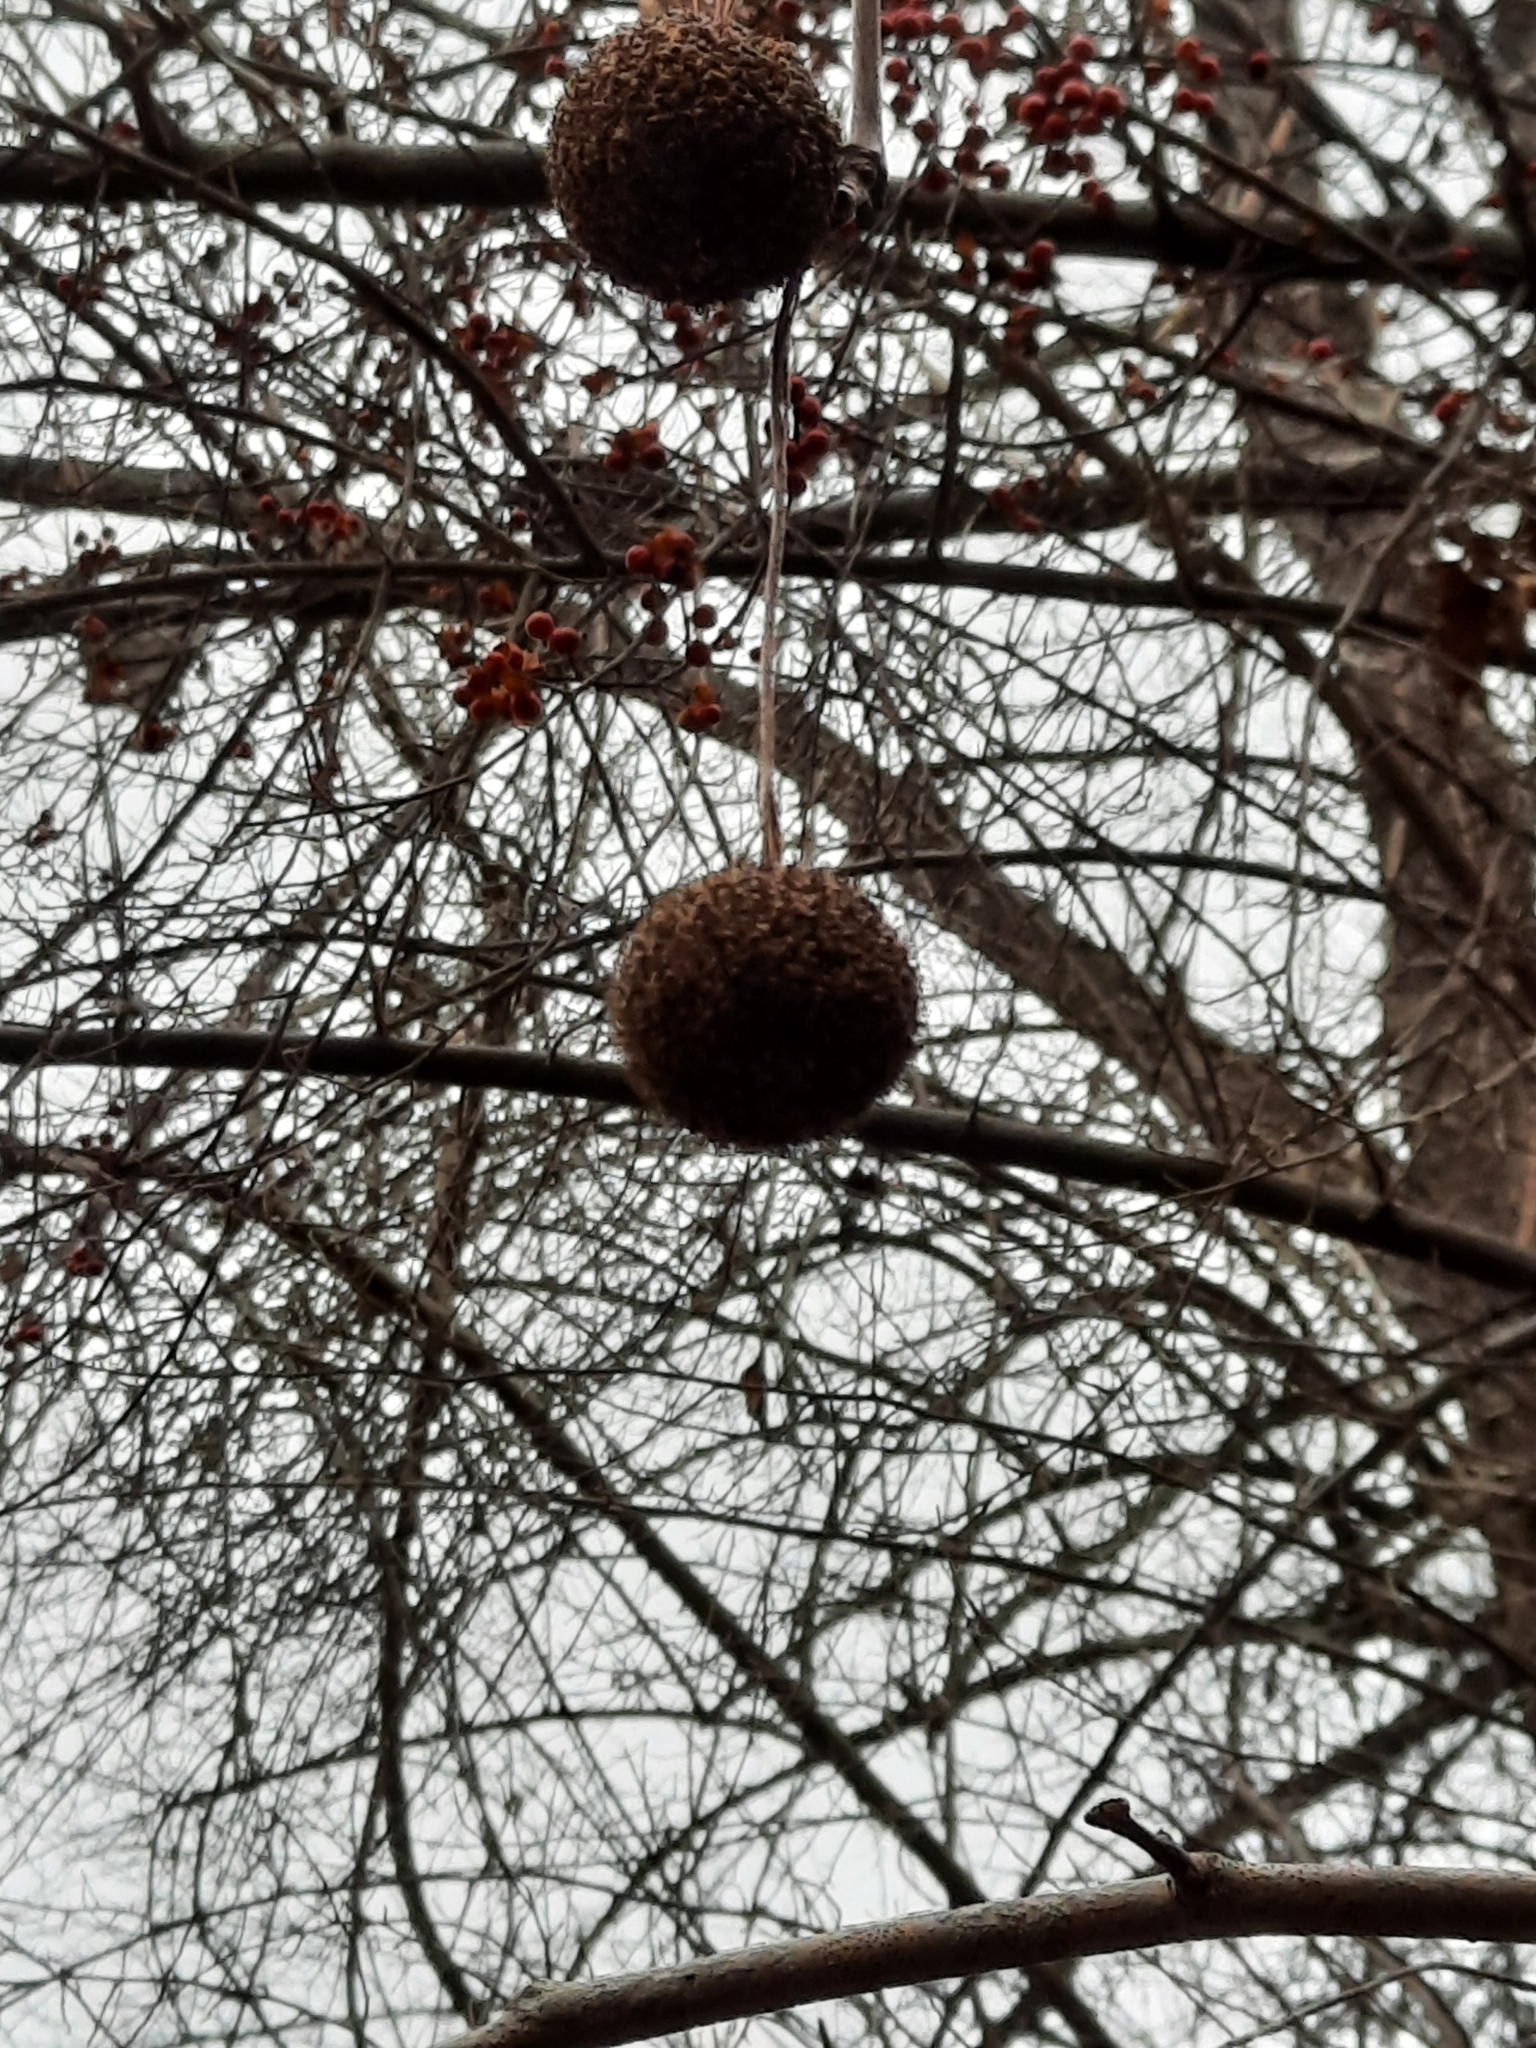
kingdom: Plantae
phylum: Tracheophyta
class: Magnoliopsida
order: Proteales
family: Platanaceae
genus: Platanus
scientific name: Platanus occidentalis
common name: American sycamore
